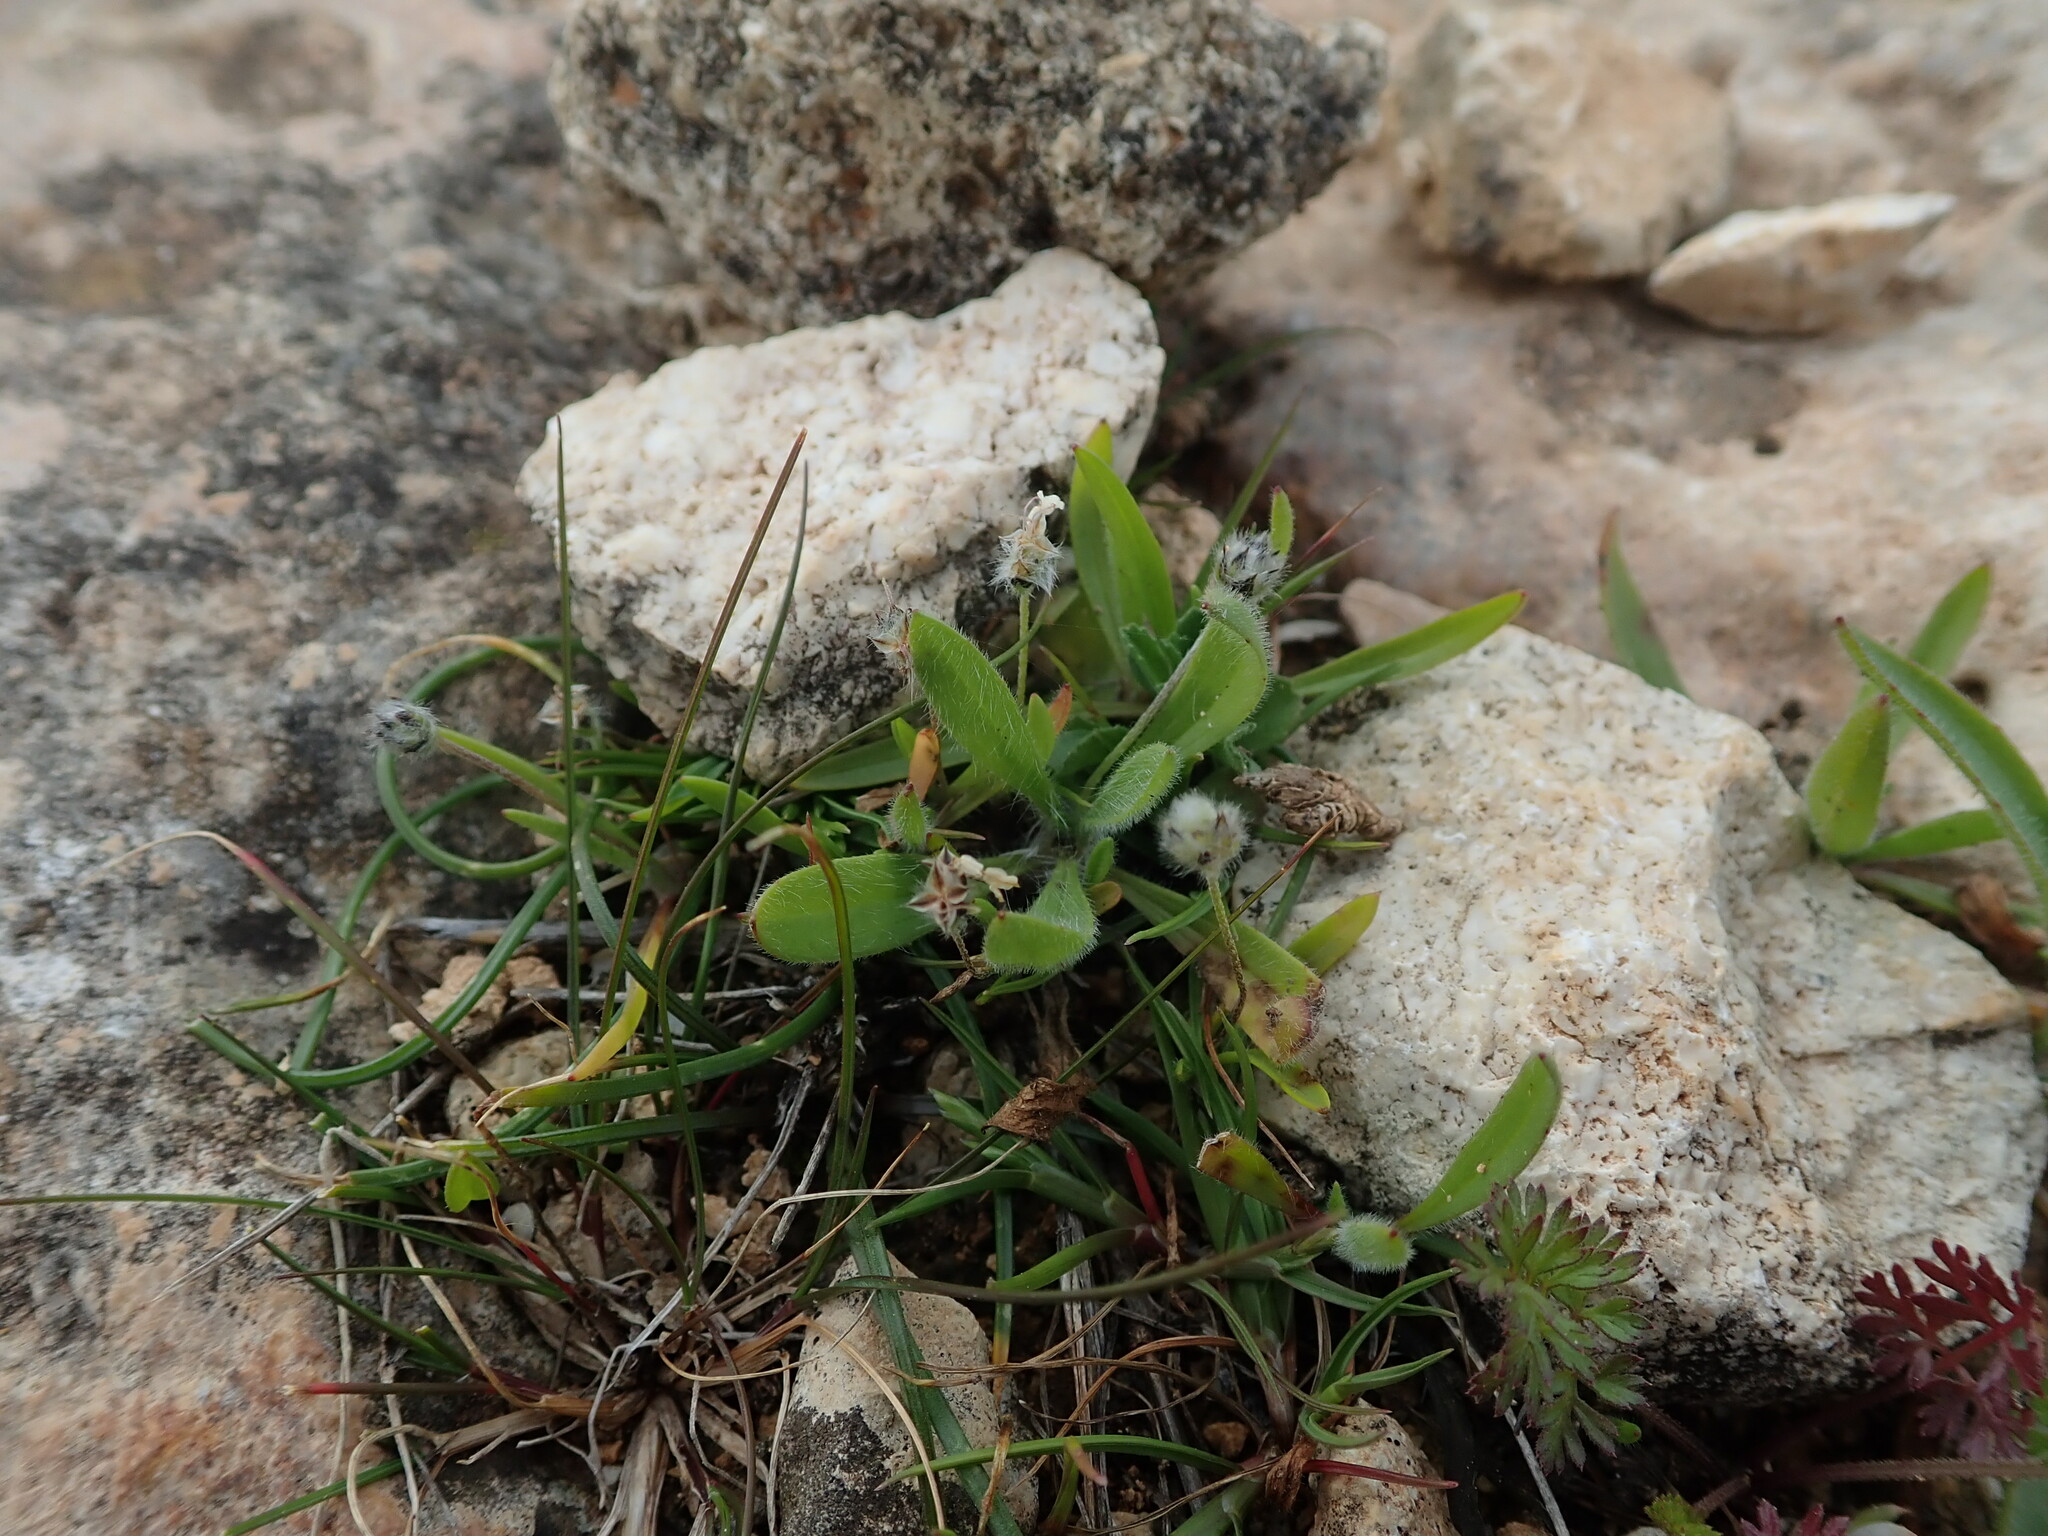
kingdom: Plantae
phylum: Tracheophyta
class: Magnoliopsida
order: Lamiales
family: Plantaginaceae
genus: Plantago
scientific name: Plantago bellardii
